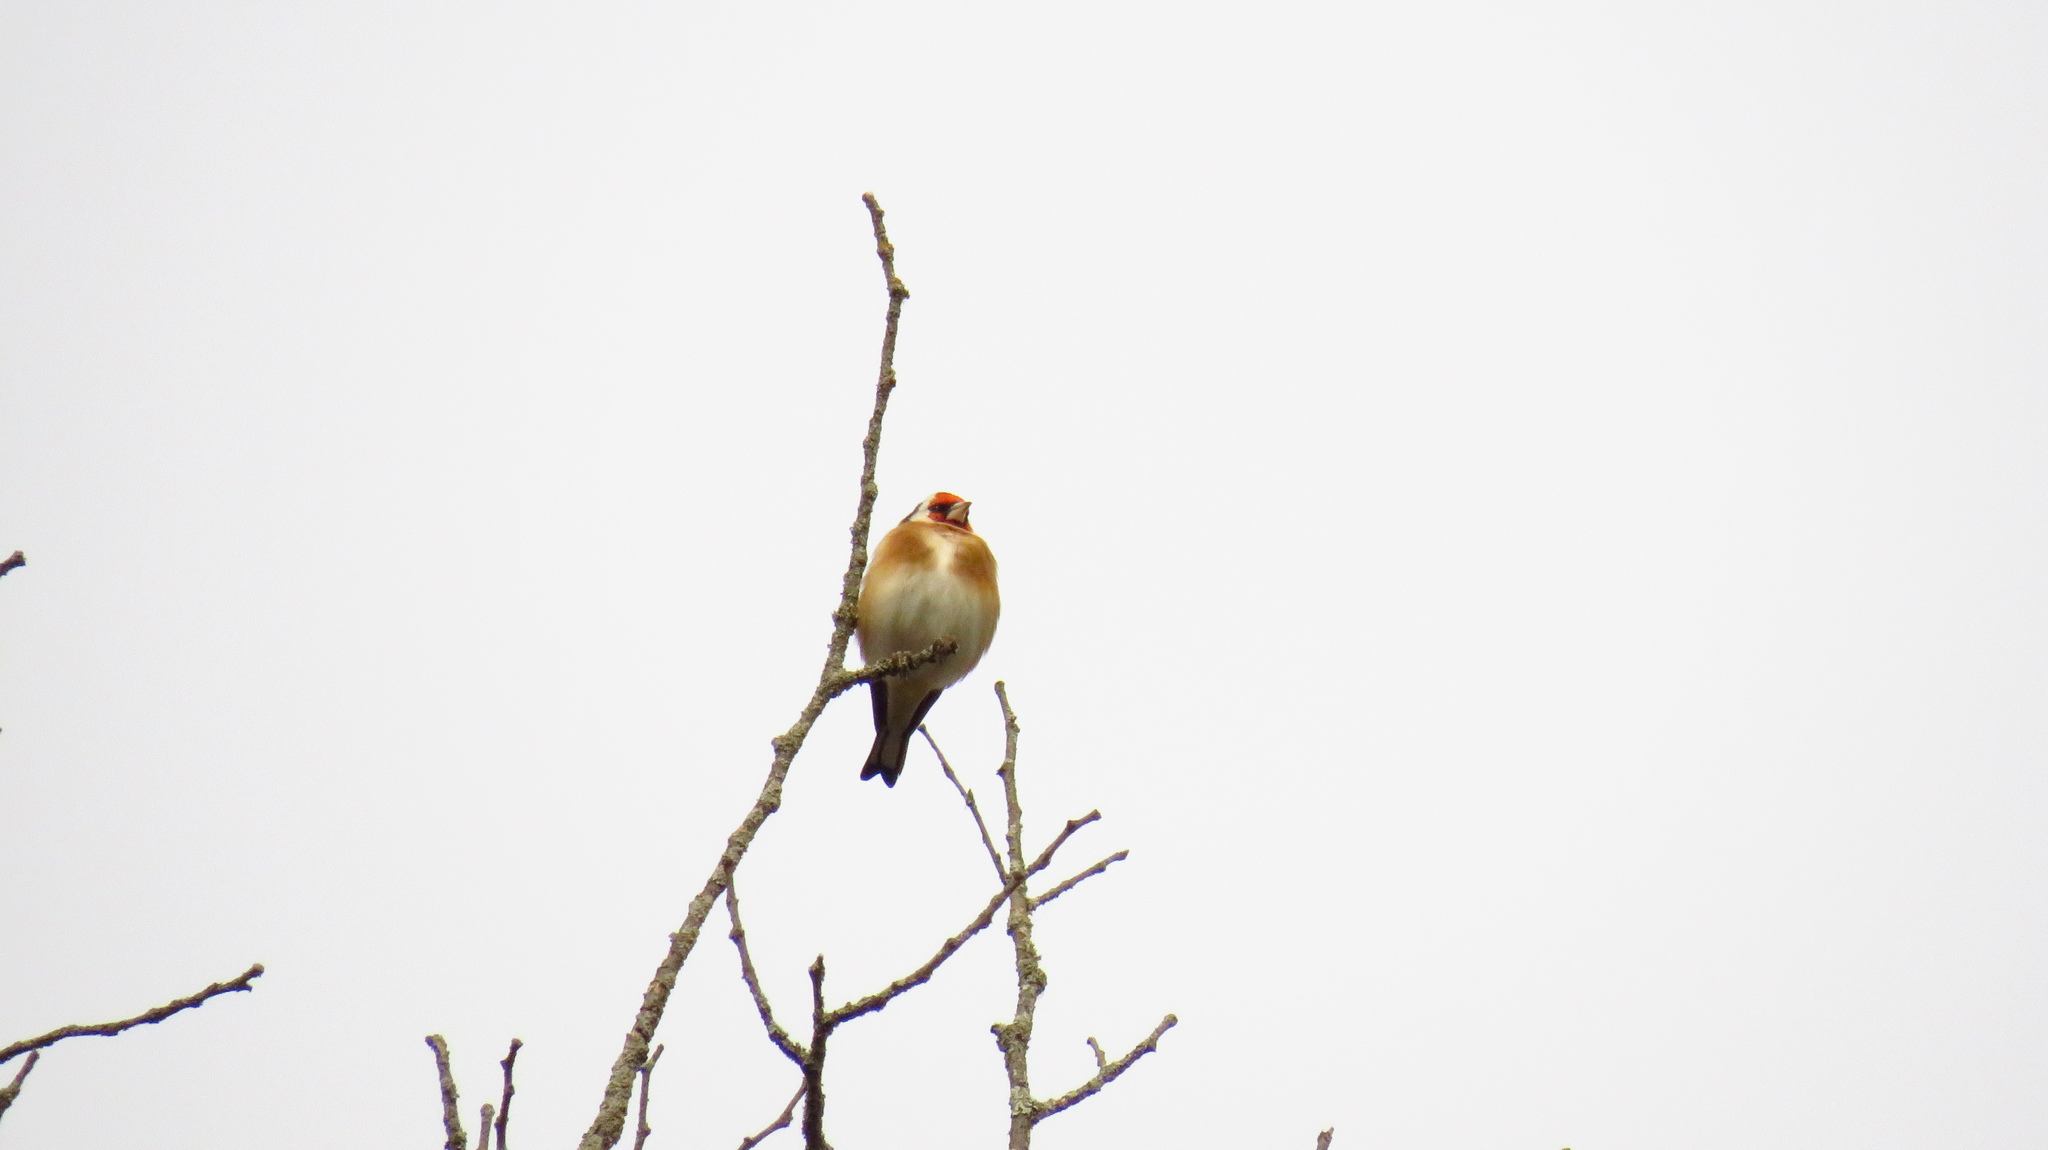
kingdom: Animalia
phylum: Chordata
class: Aves
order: Passeriformes
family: Fringillidae
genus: Carduelis
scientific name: Carduelis carduelis
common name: European goldfinch
